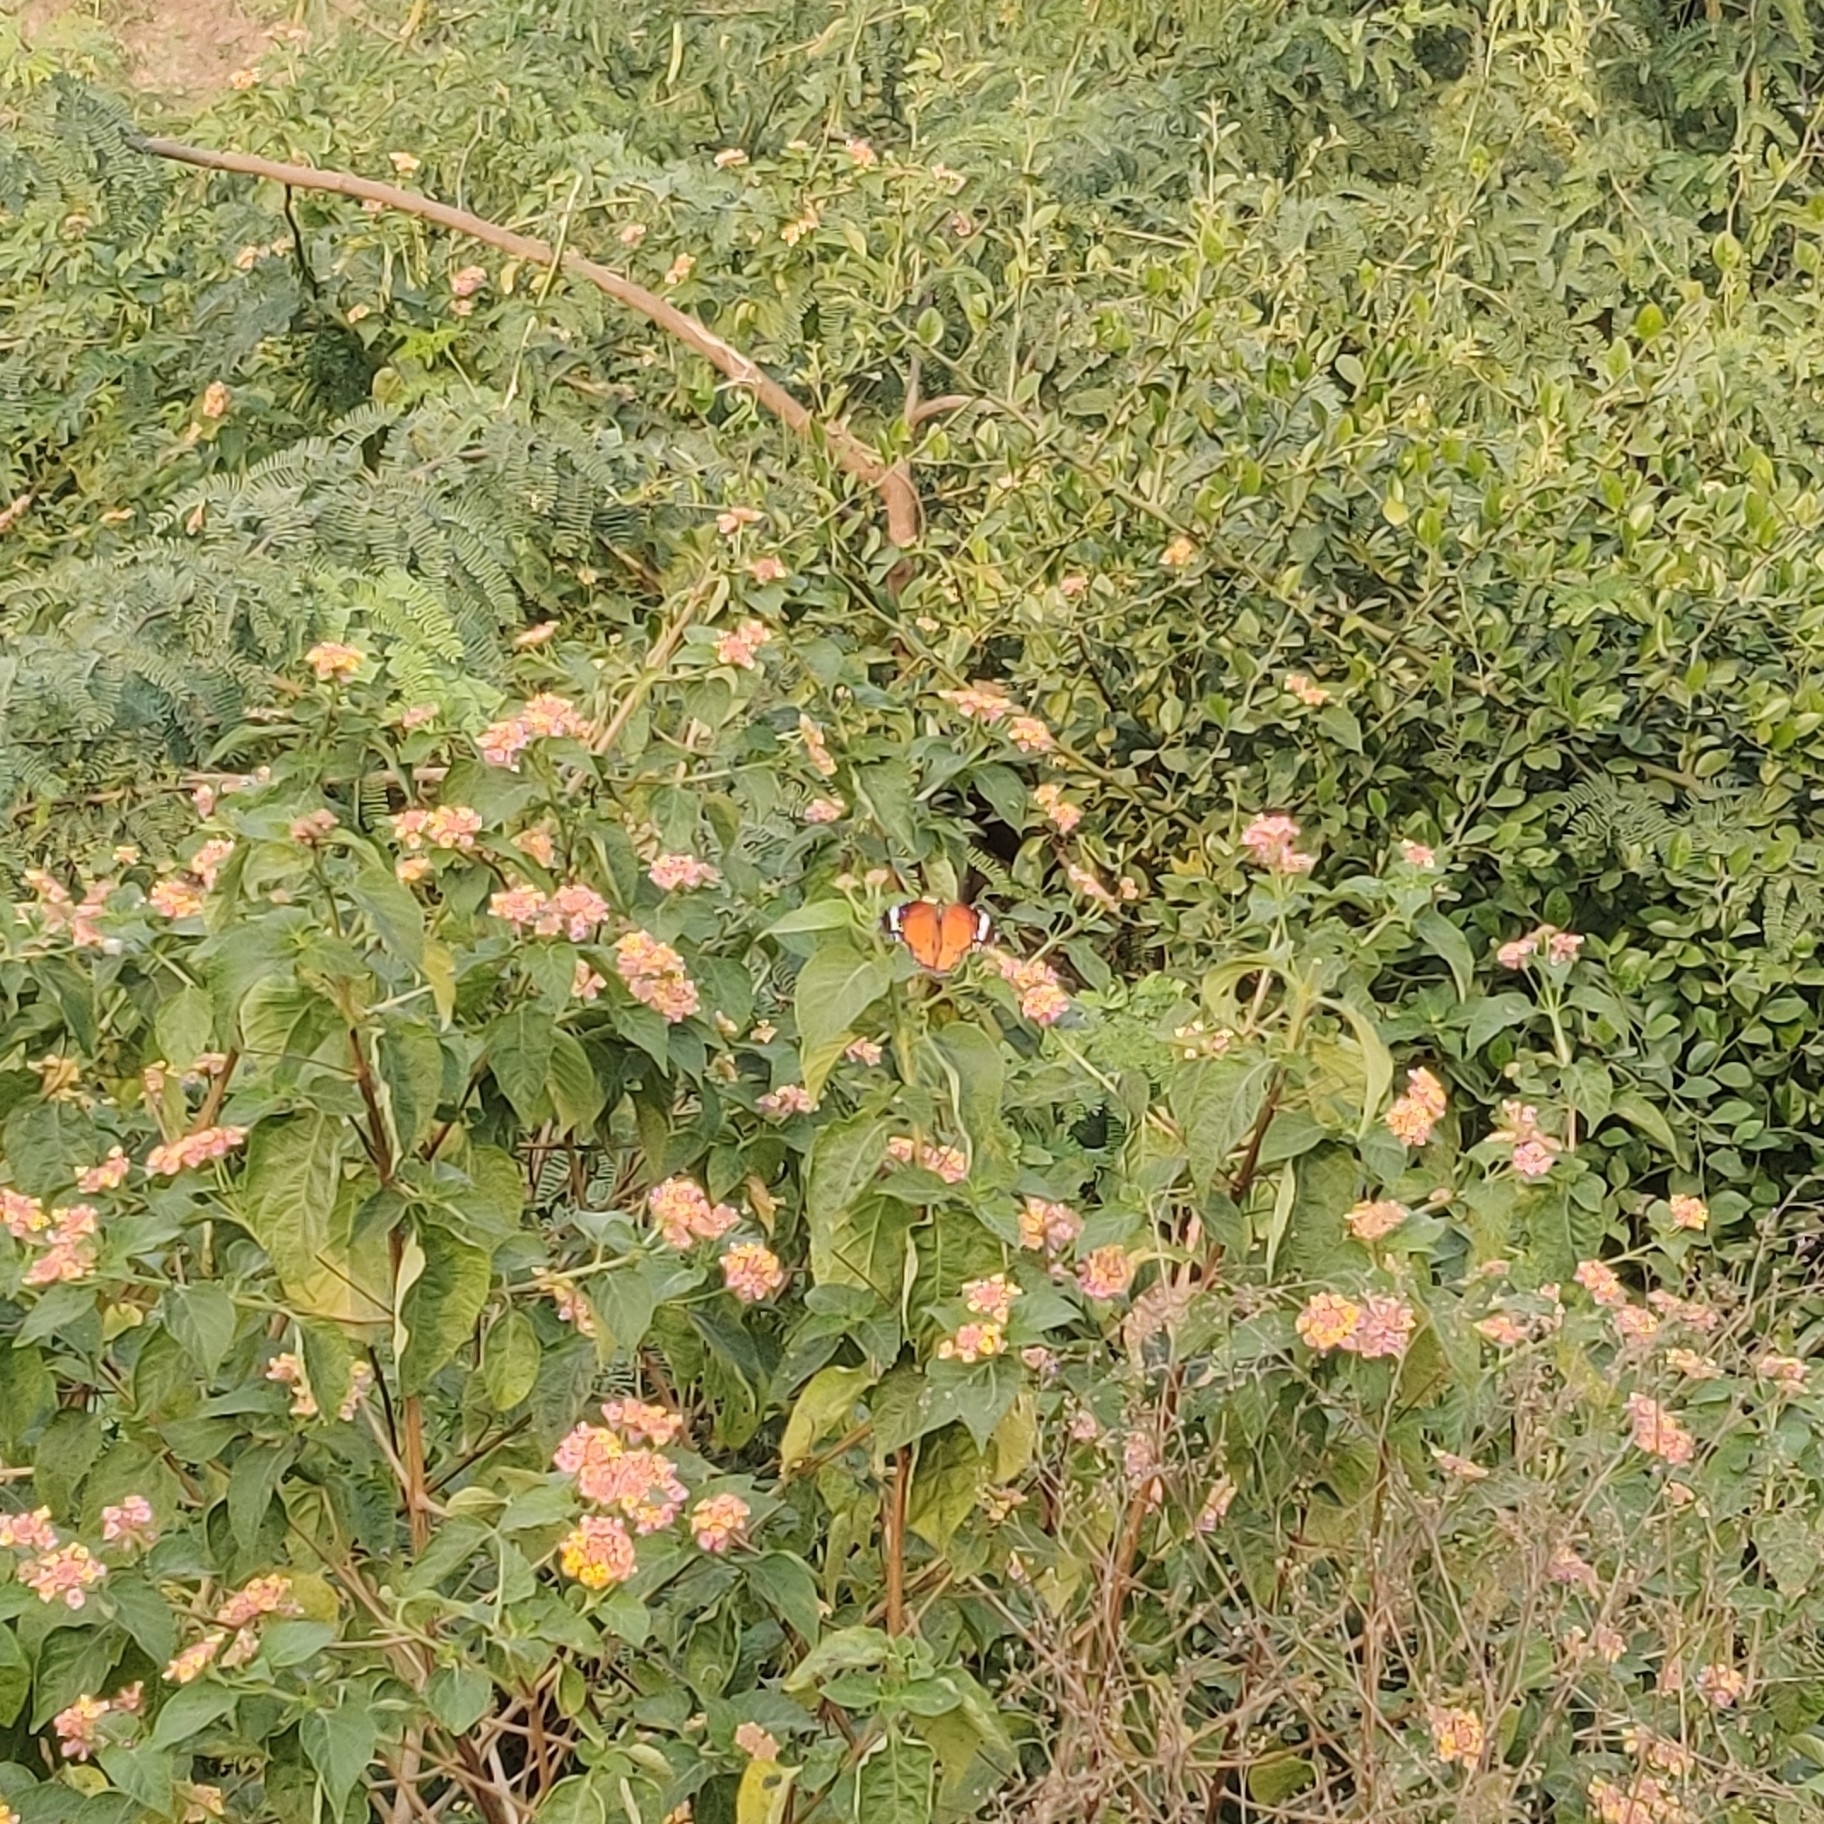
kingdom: Animalia
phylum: Arthropoda
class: Insecta
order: Lepidoptera
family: Nymphalidae
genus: Danaus
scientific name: Danaus chrysippus
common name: Plain tiger
